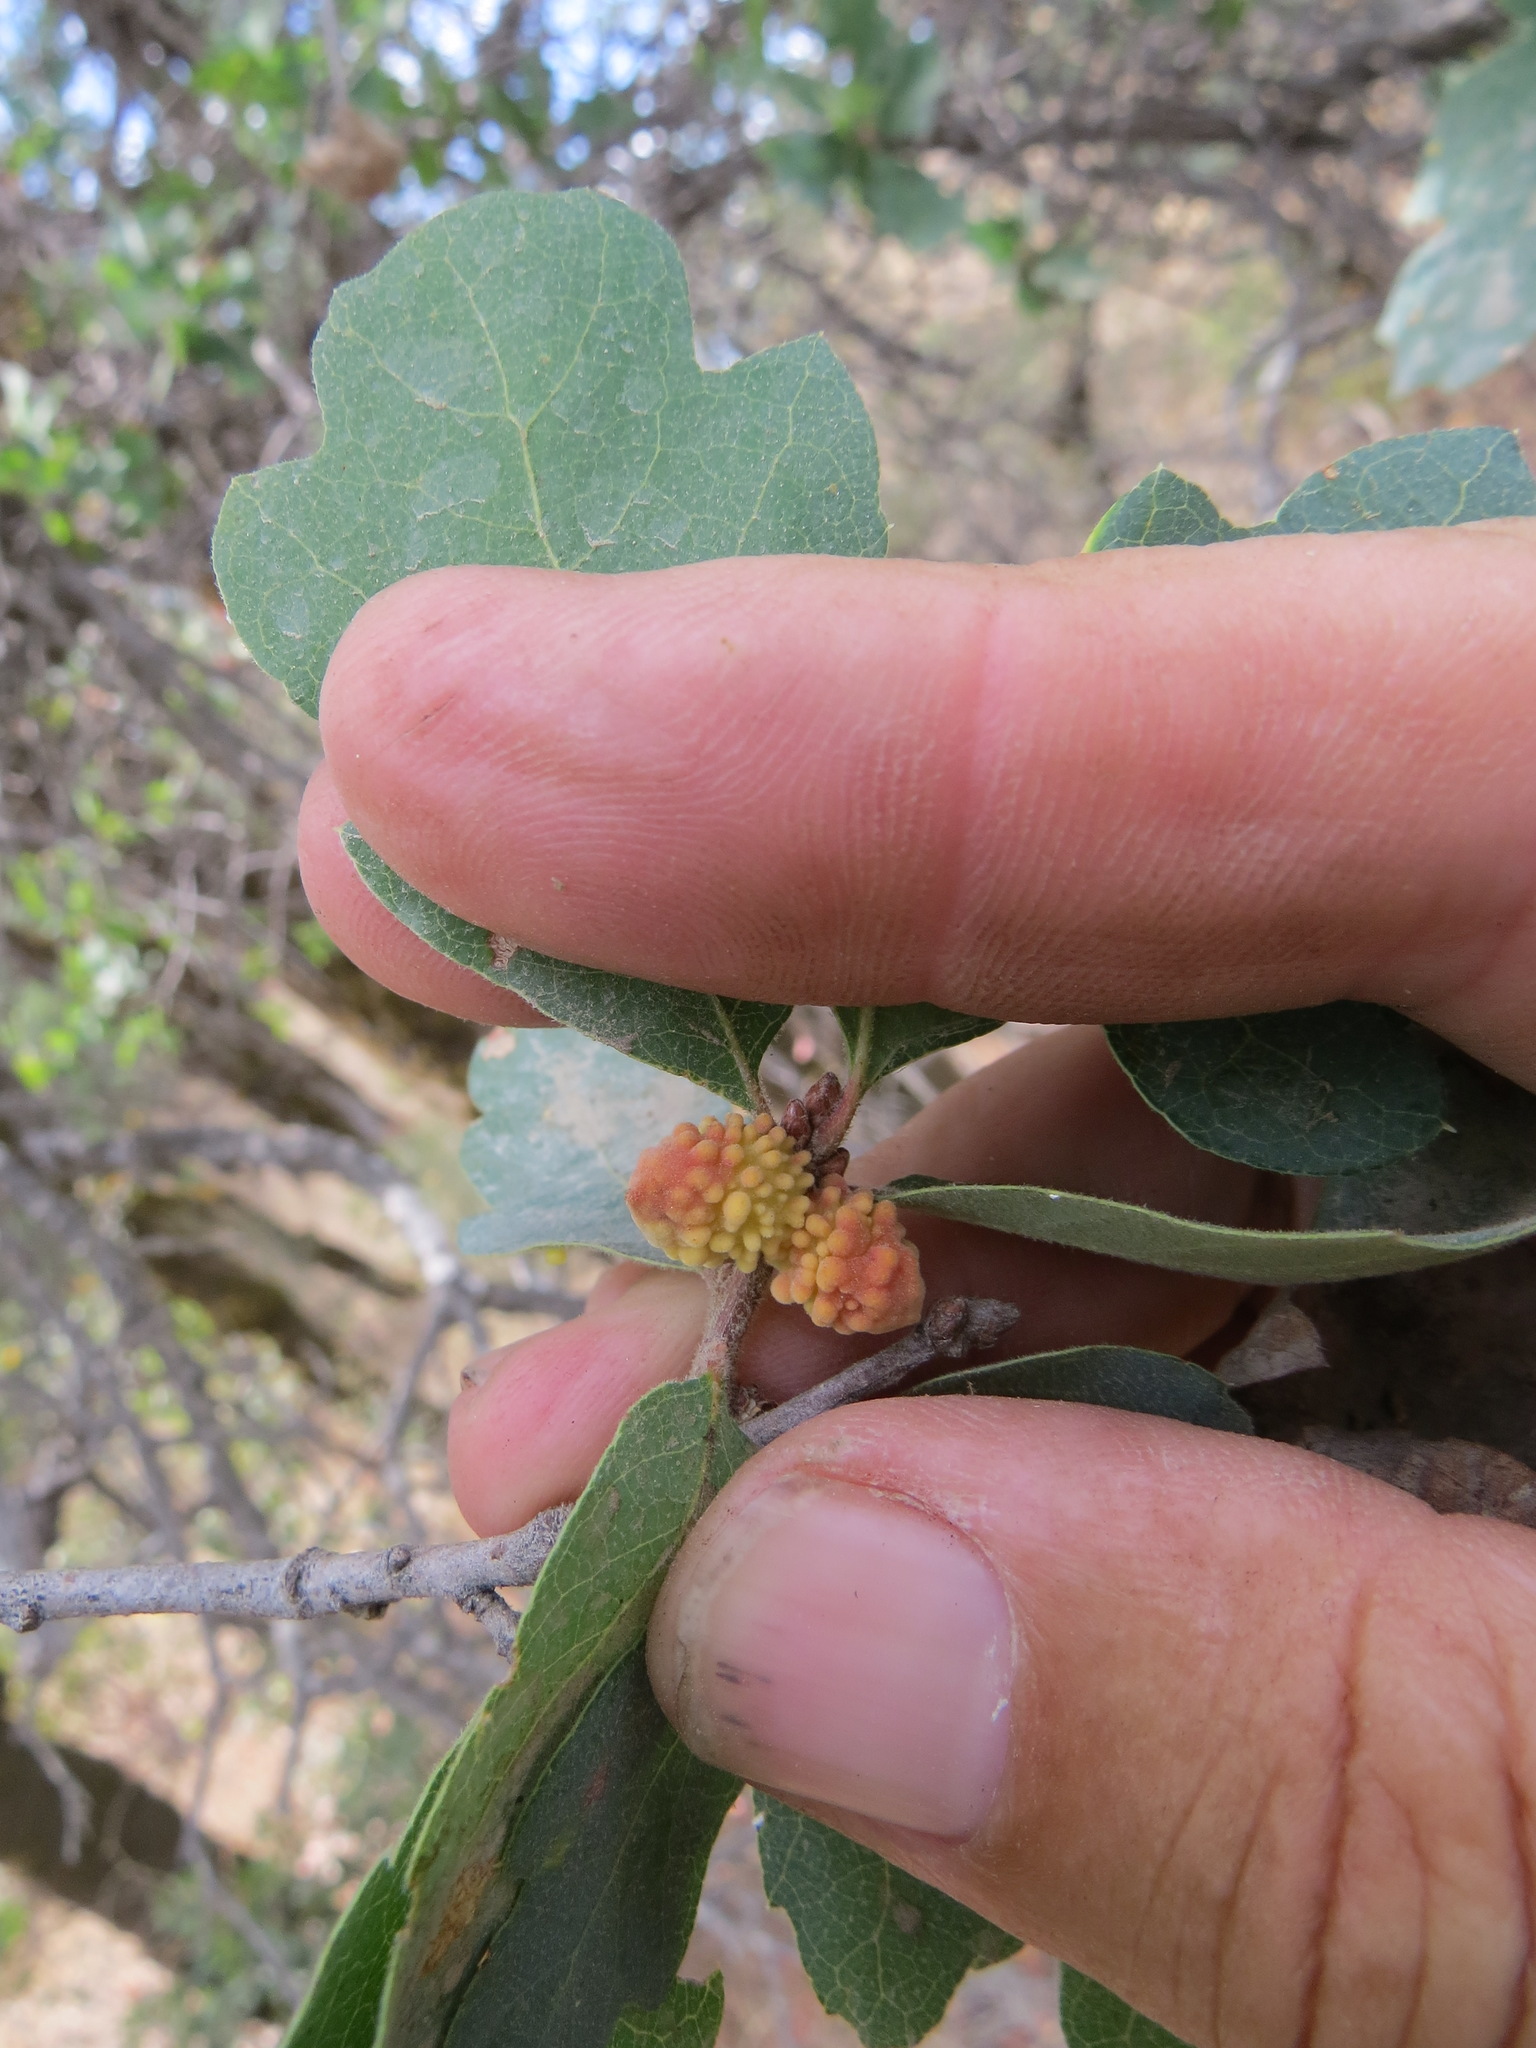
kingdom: Animalia
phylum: Arthropoda
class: Insecta
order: Hymenoptera
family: Cynipidae
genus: Burnettweldia
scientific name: Burnettweldia
